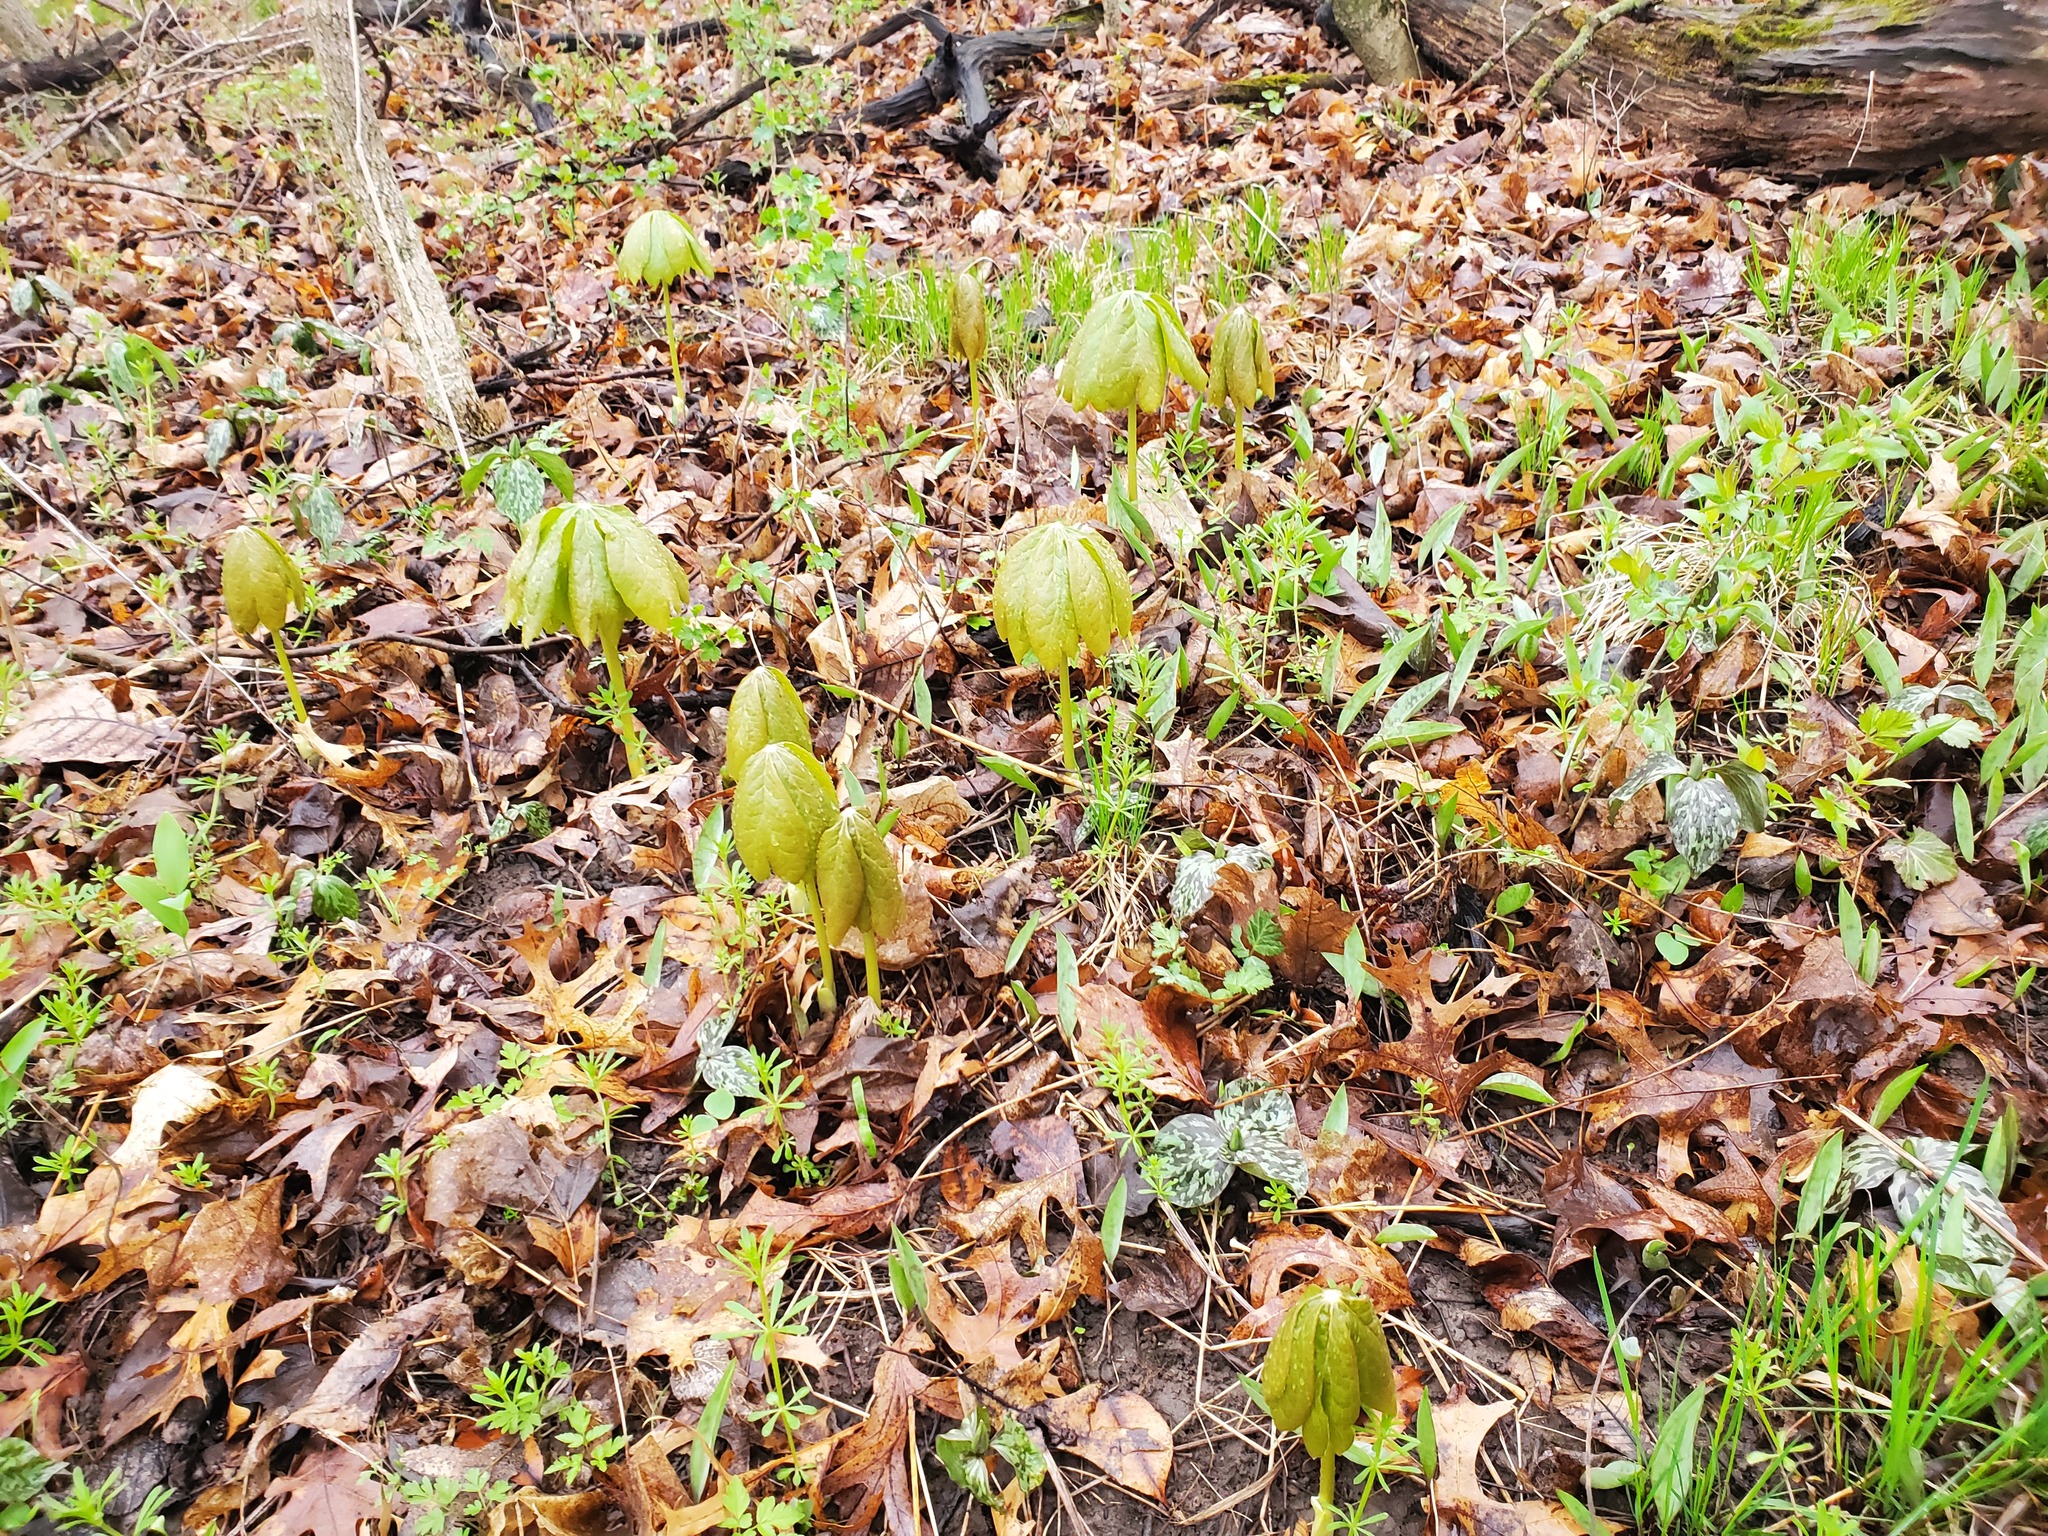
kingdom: Plantae
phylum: Tracheophyta
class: Magnoliopsida
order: Ranunculales
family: Berberidaceae
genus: Podophyllum
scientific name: Podophyllum peltatum
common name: Wild mandrake
